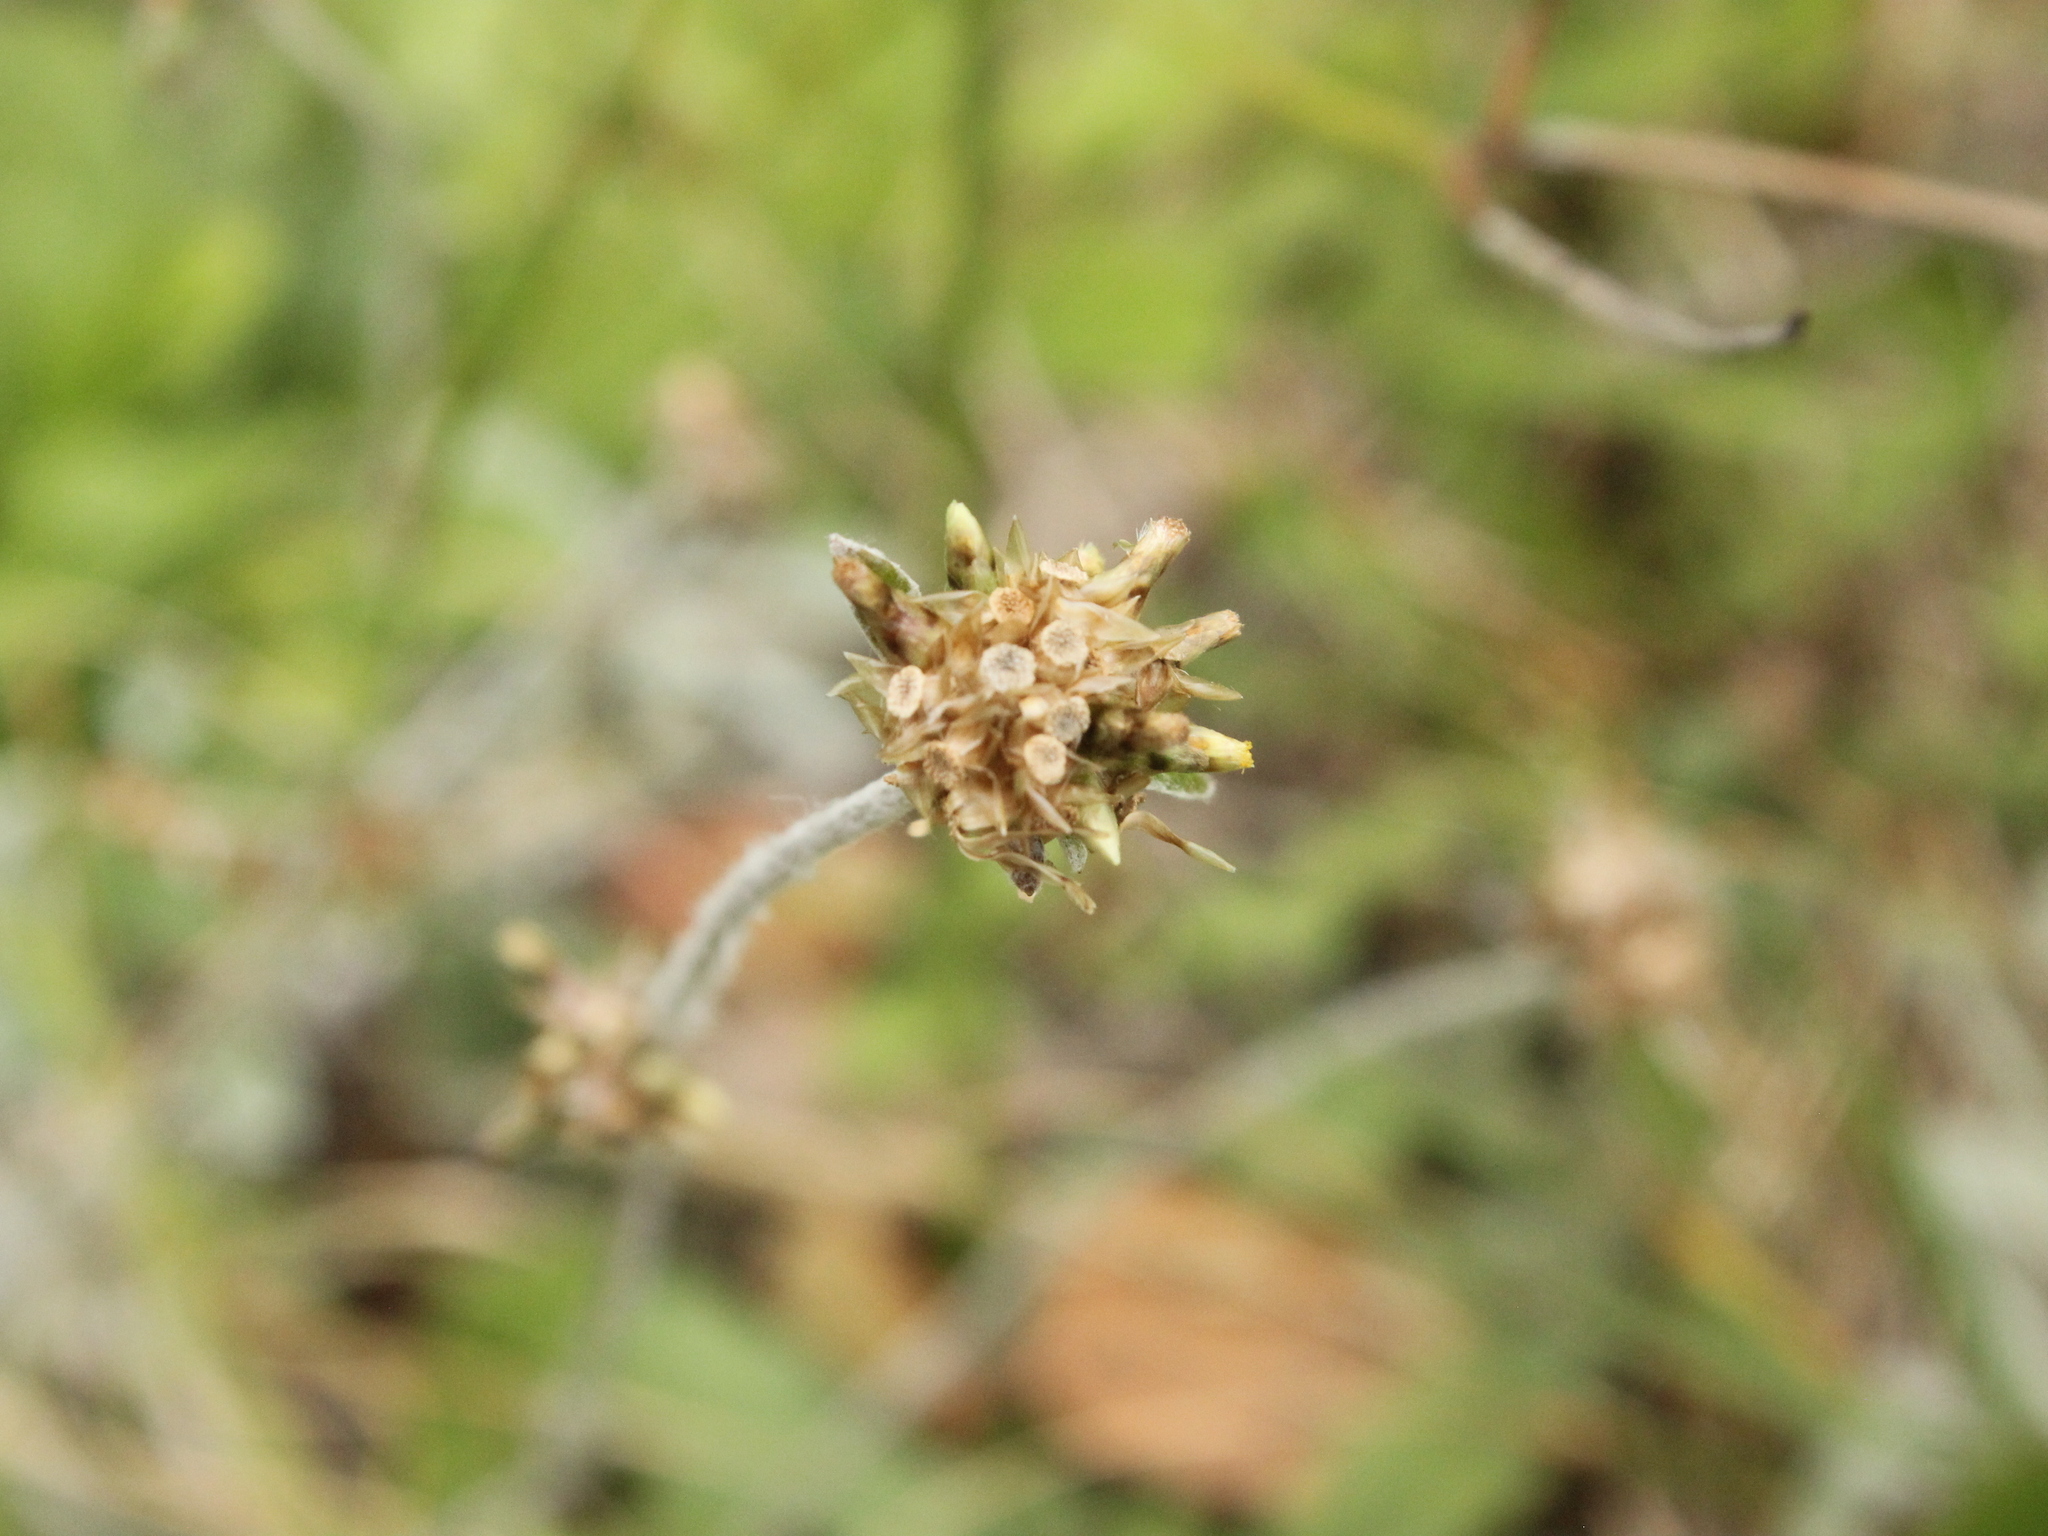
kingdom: Plantae
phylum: Tracheophyta
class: Magnoliopsida
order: Asterales
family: Asteraceae
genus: Euchiton
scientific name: Euchiton audax
